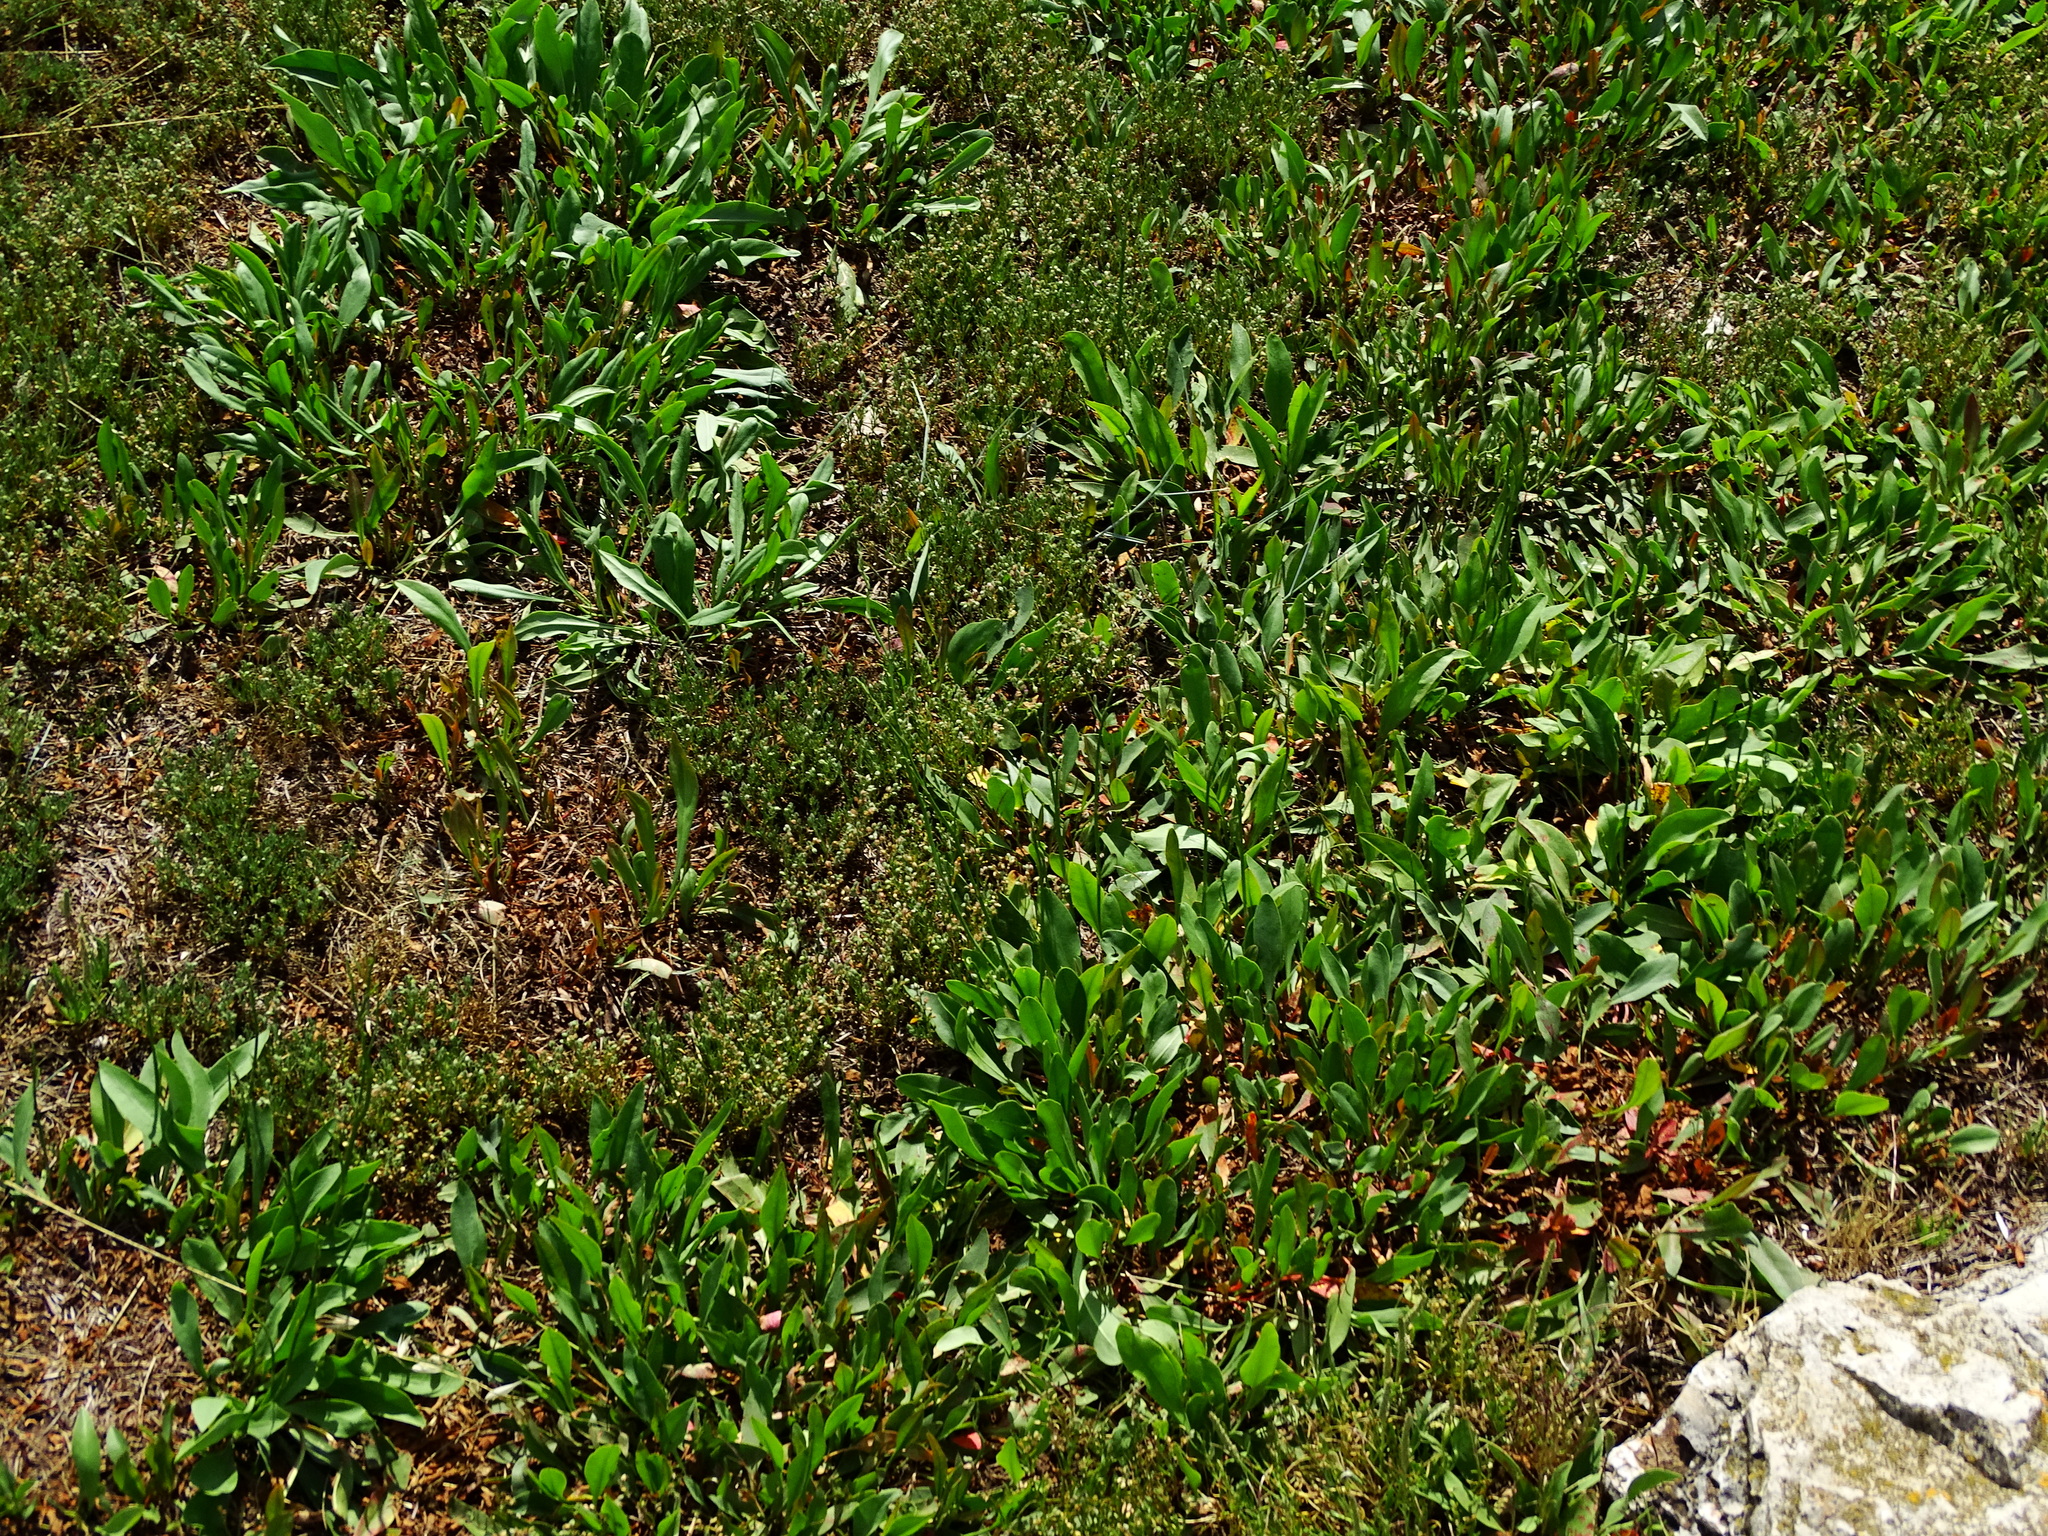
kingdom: Plantae
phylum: Tracheophyta
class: Magnoliopsida
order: Caryophyllales
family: Plumbaginaceae
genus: Limonium
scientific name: Limonium narbonense
